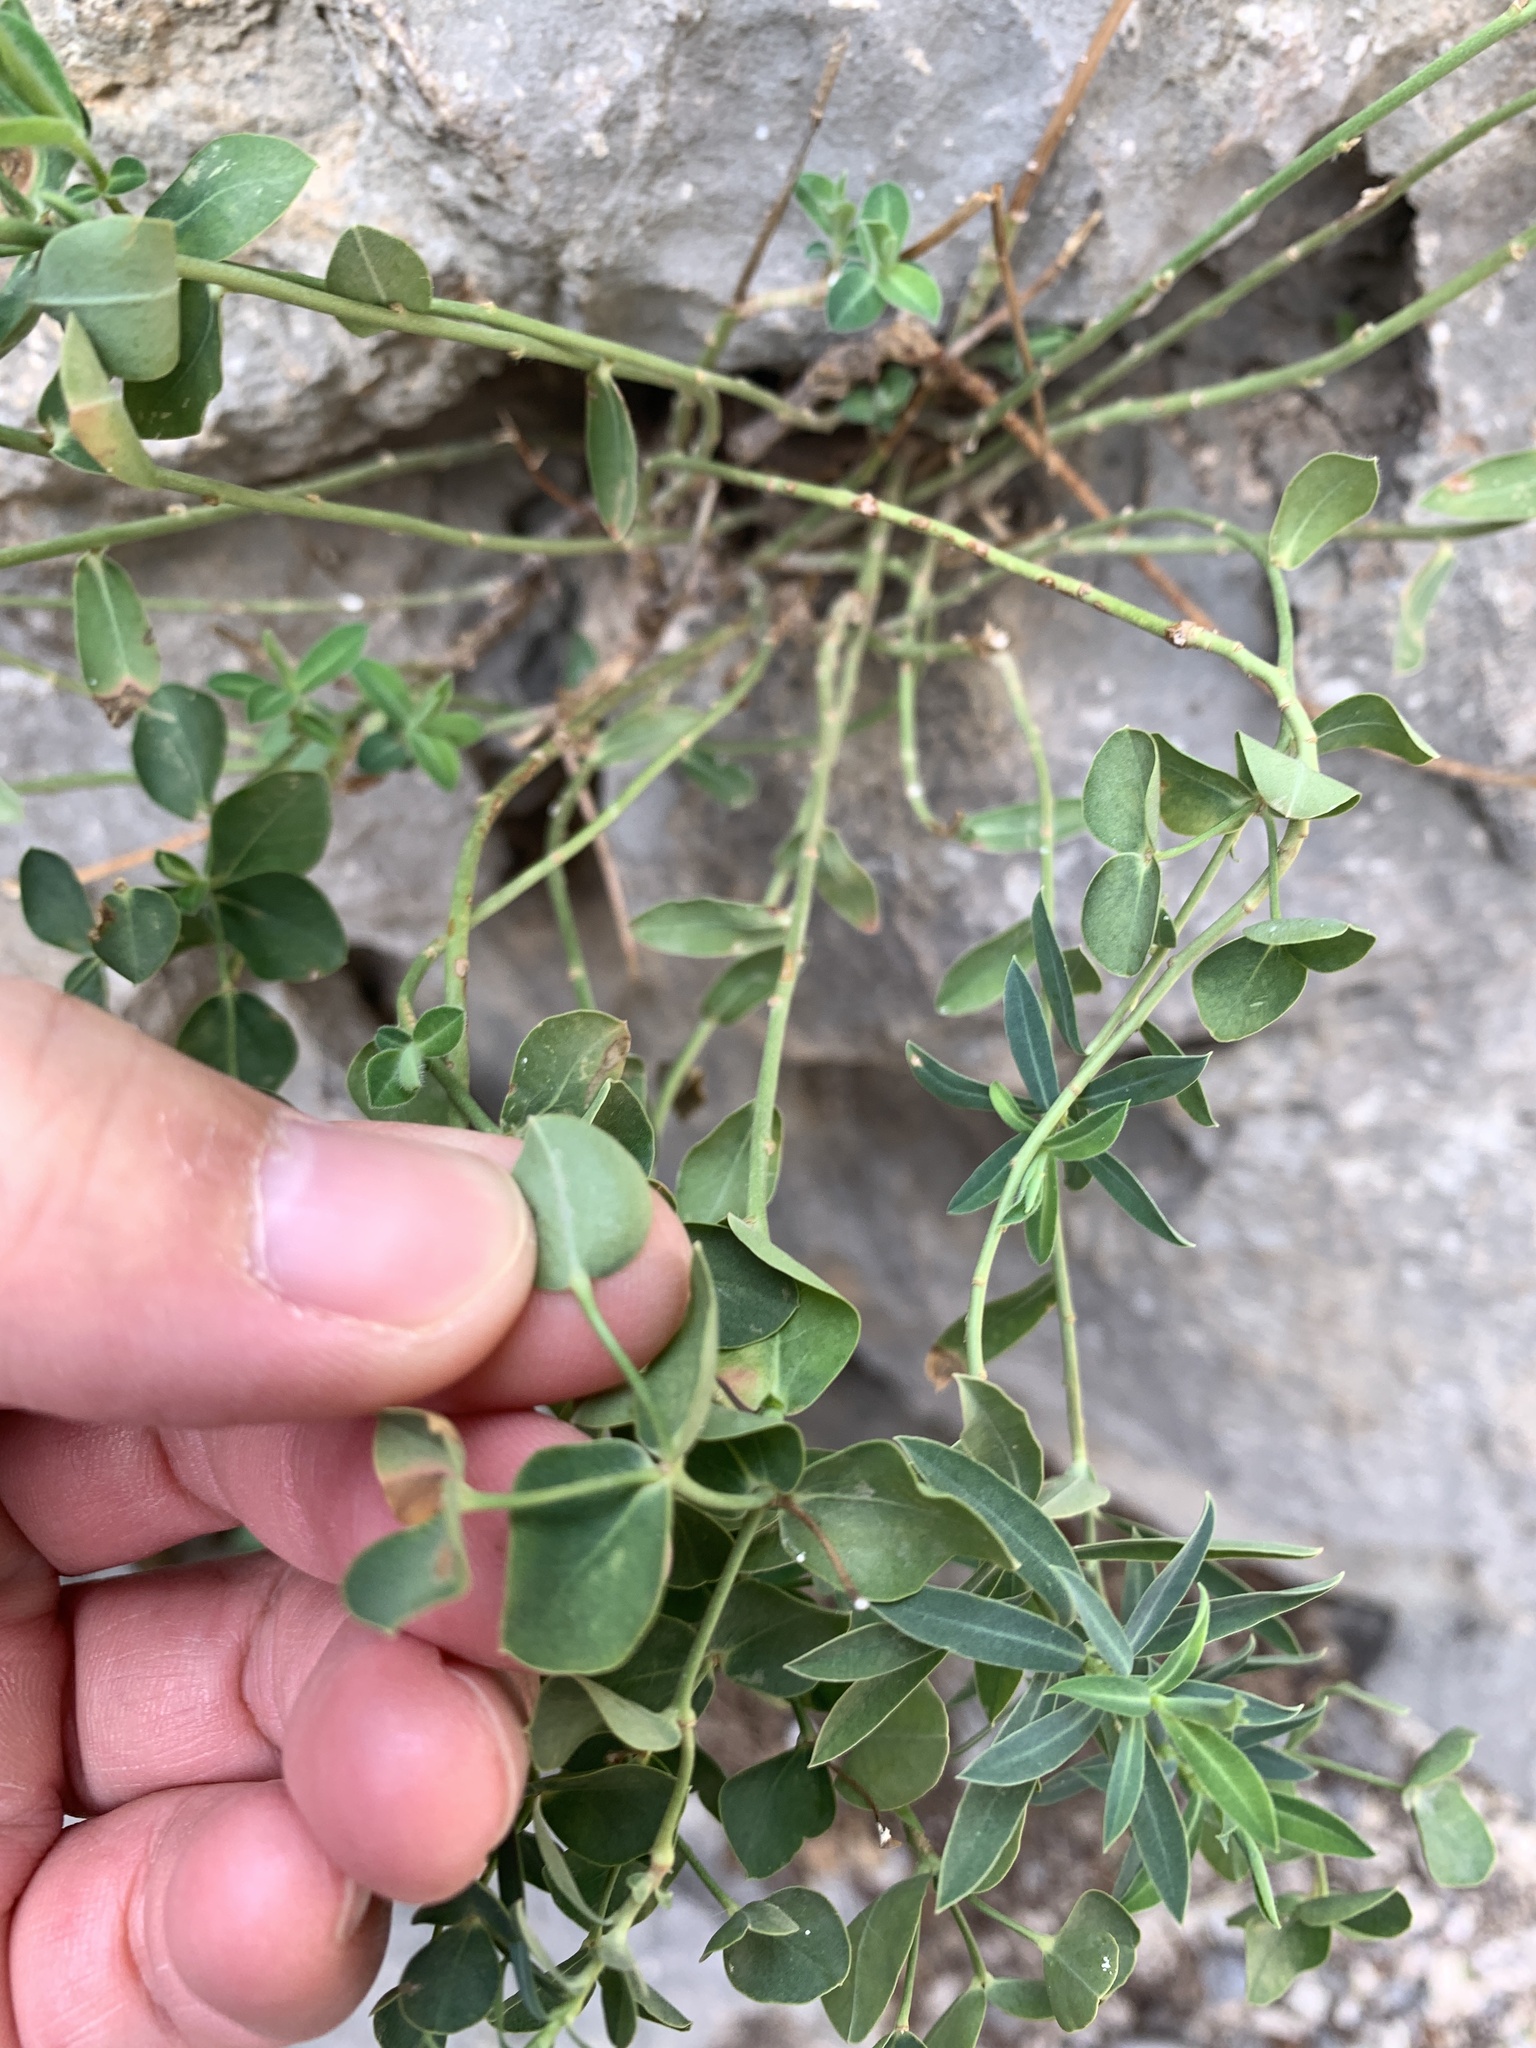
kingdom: Plantae
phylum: Tracheophyta
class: Magnoliopsida
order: Malpighiales
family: Euphorbiaceae
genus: Euphorbia
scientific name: Euphorbia fragifera
